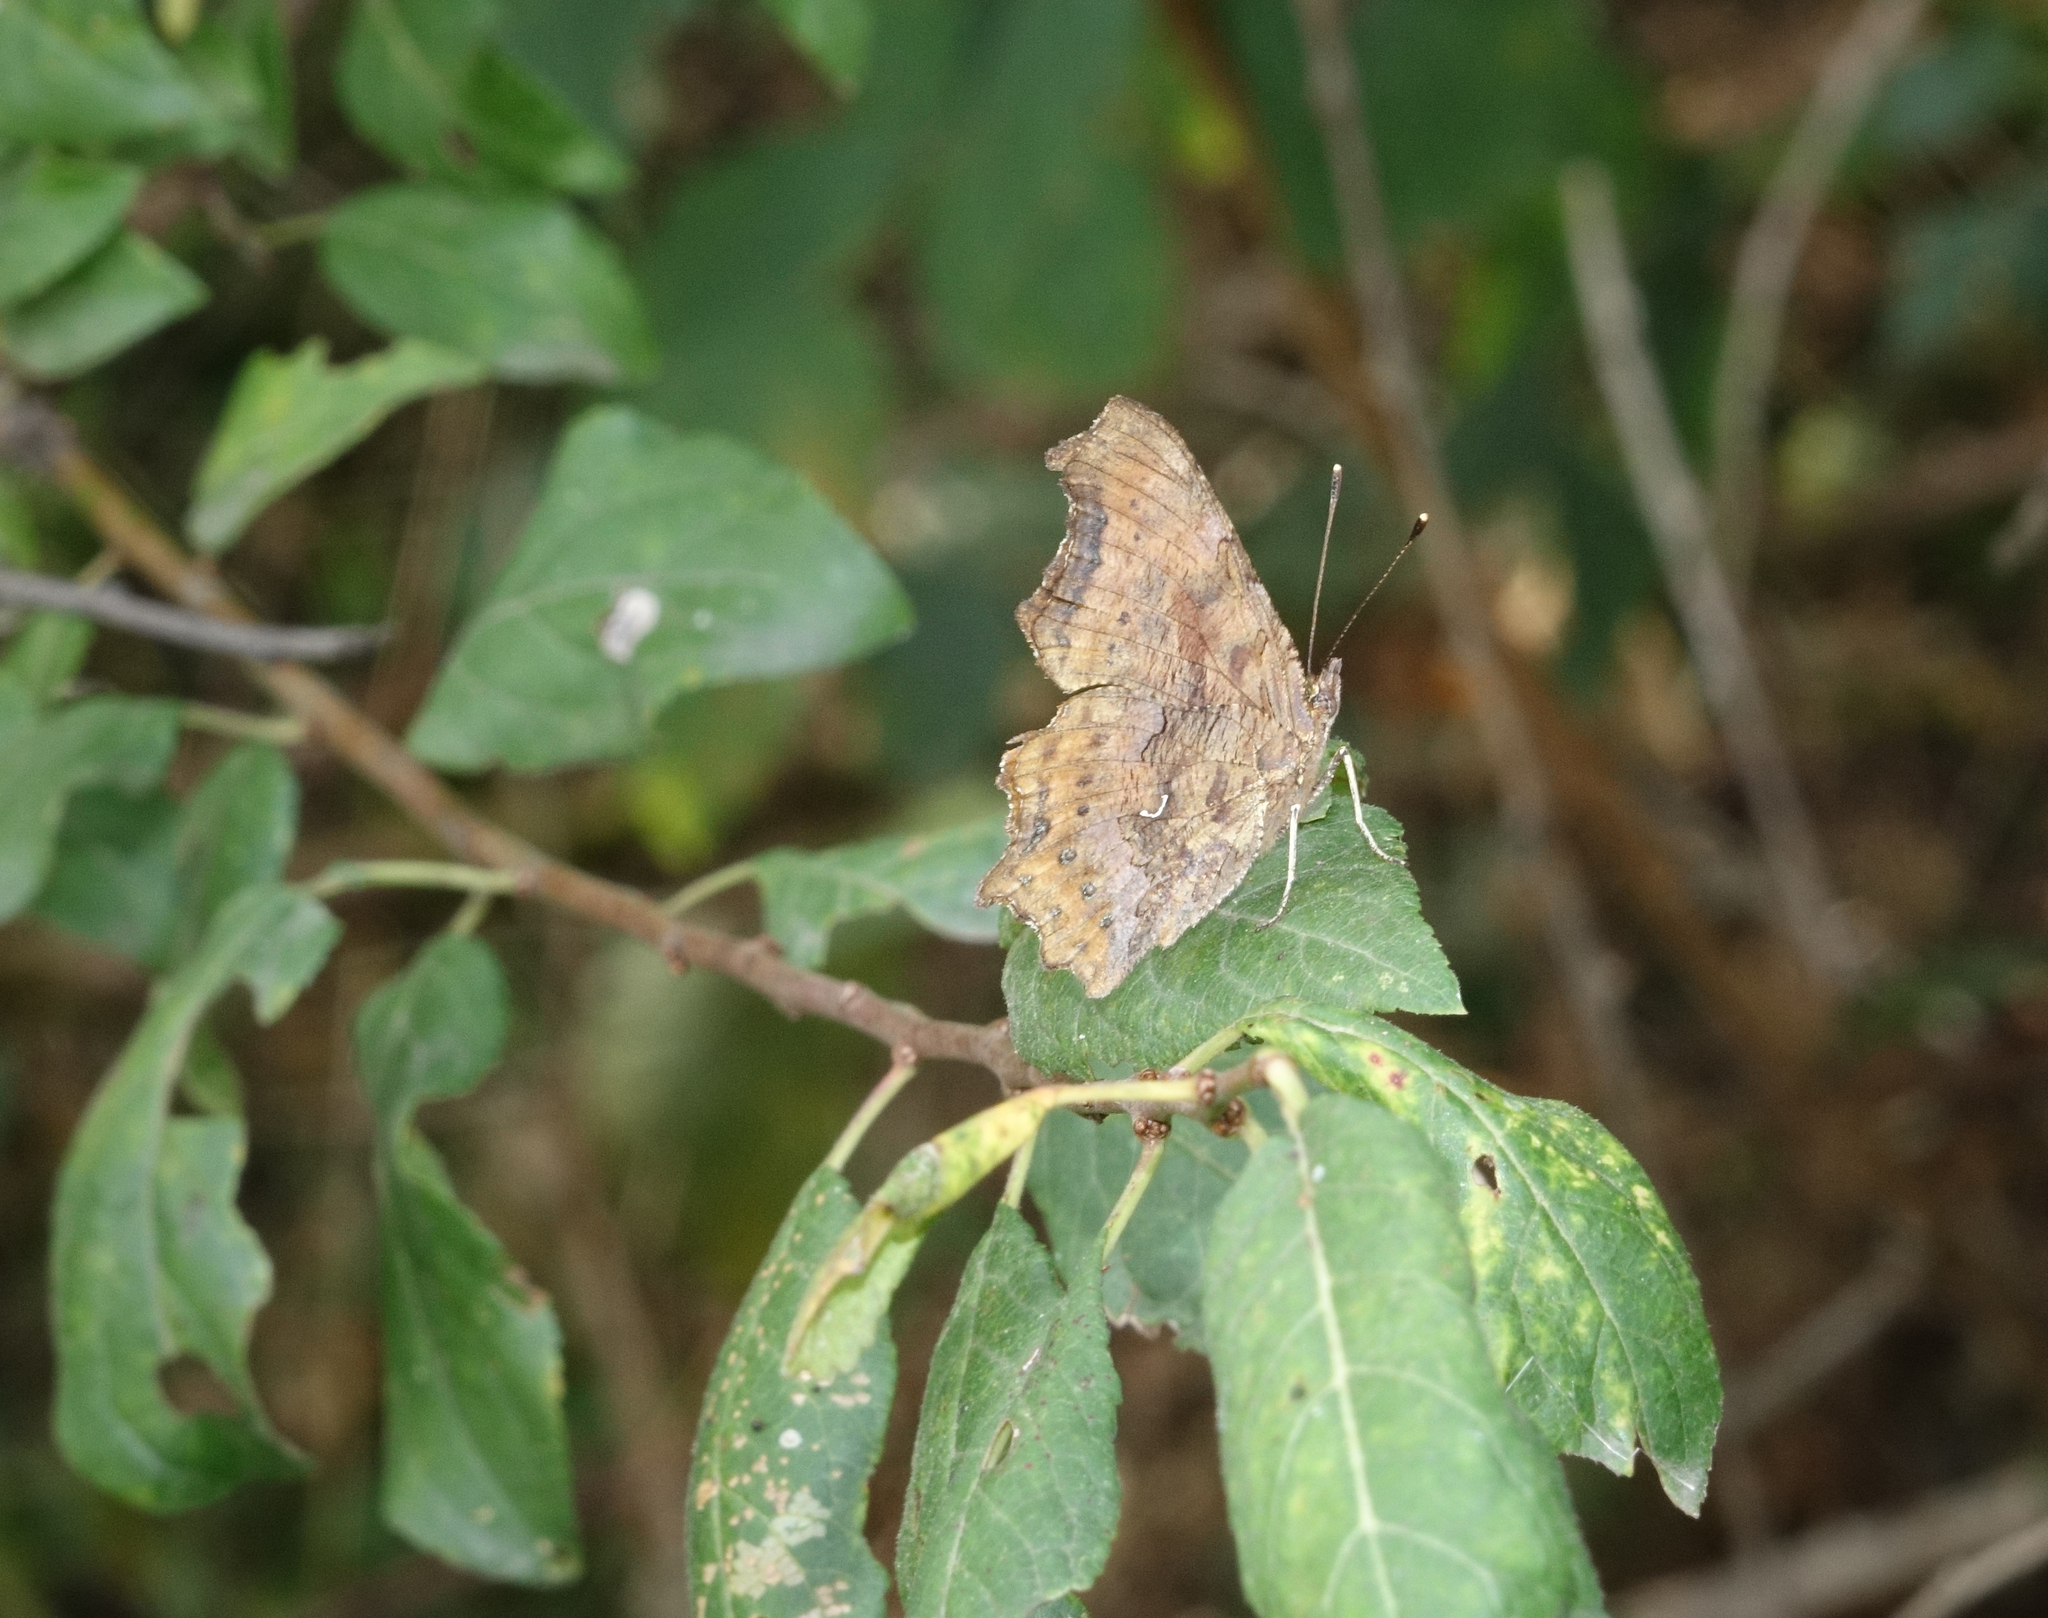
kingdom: Animalia
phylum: Arthropoda
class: Insecta
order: Lepidoptera
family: Nymphalidae
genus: Polygonia
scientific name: Polygonia c-album
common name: Comma
